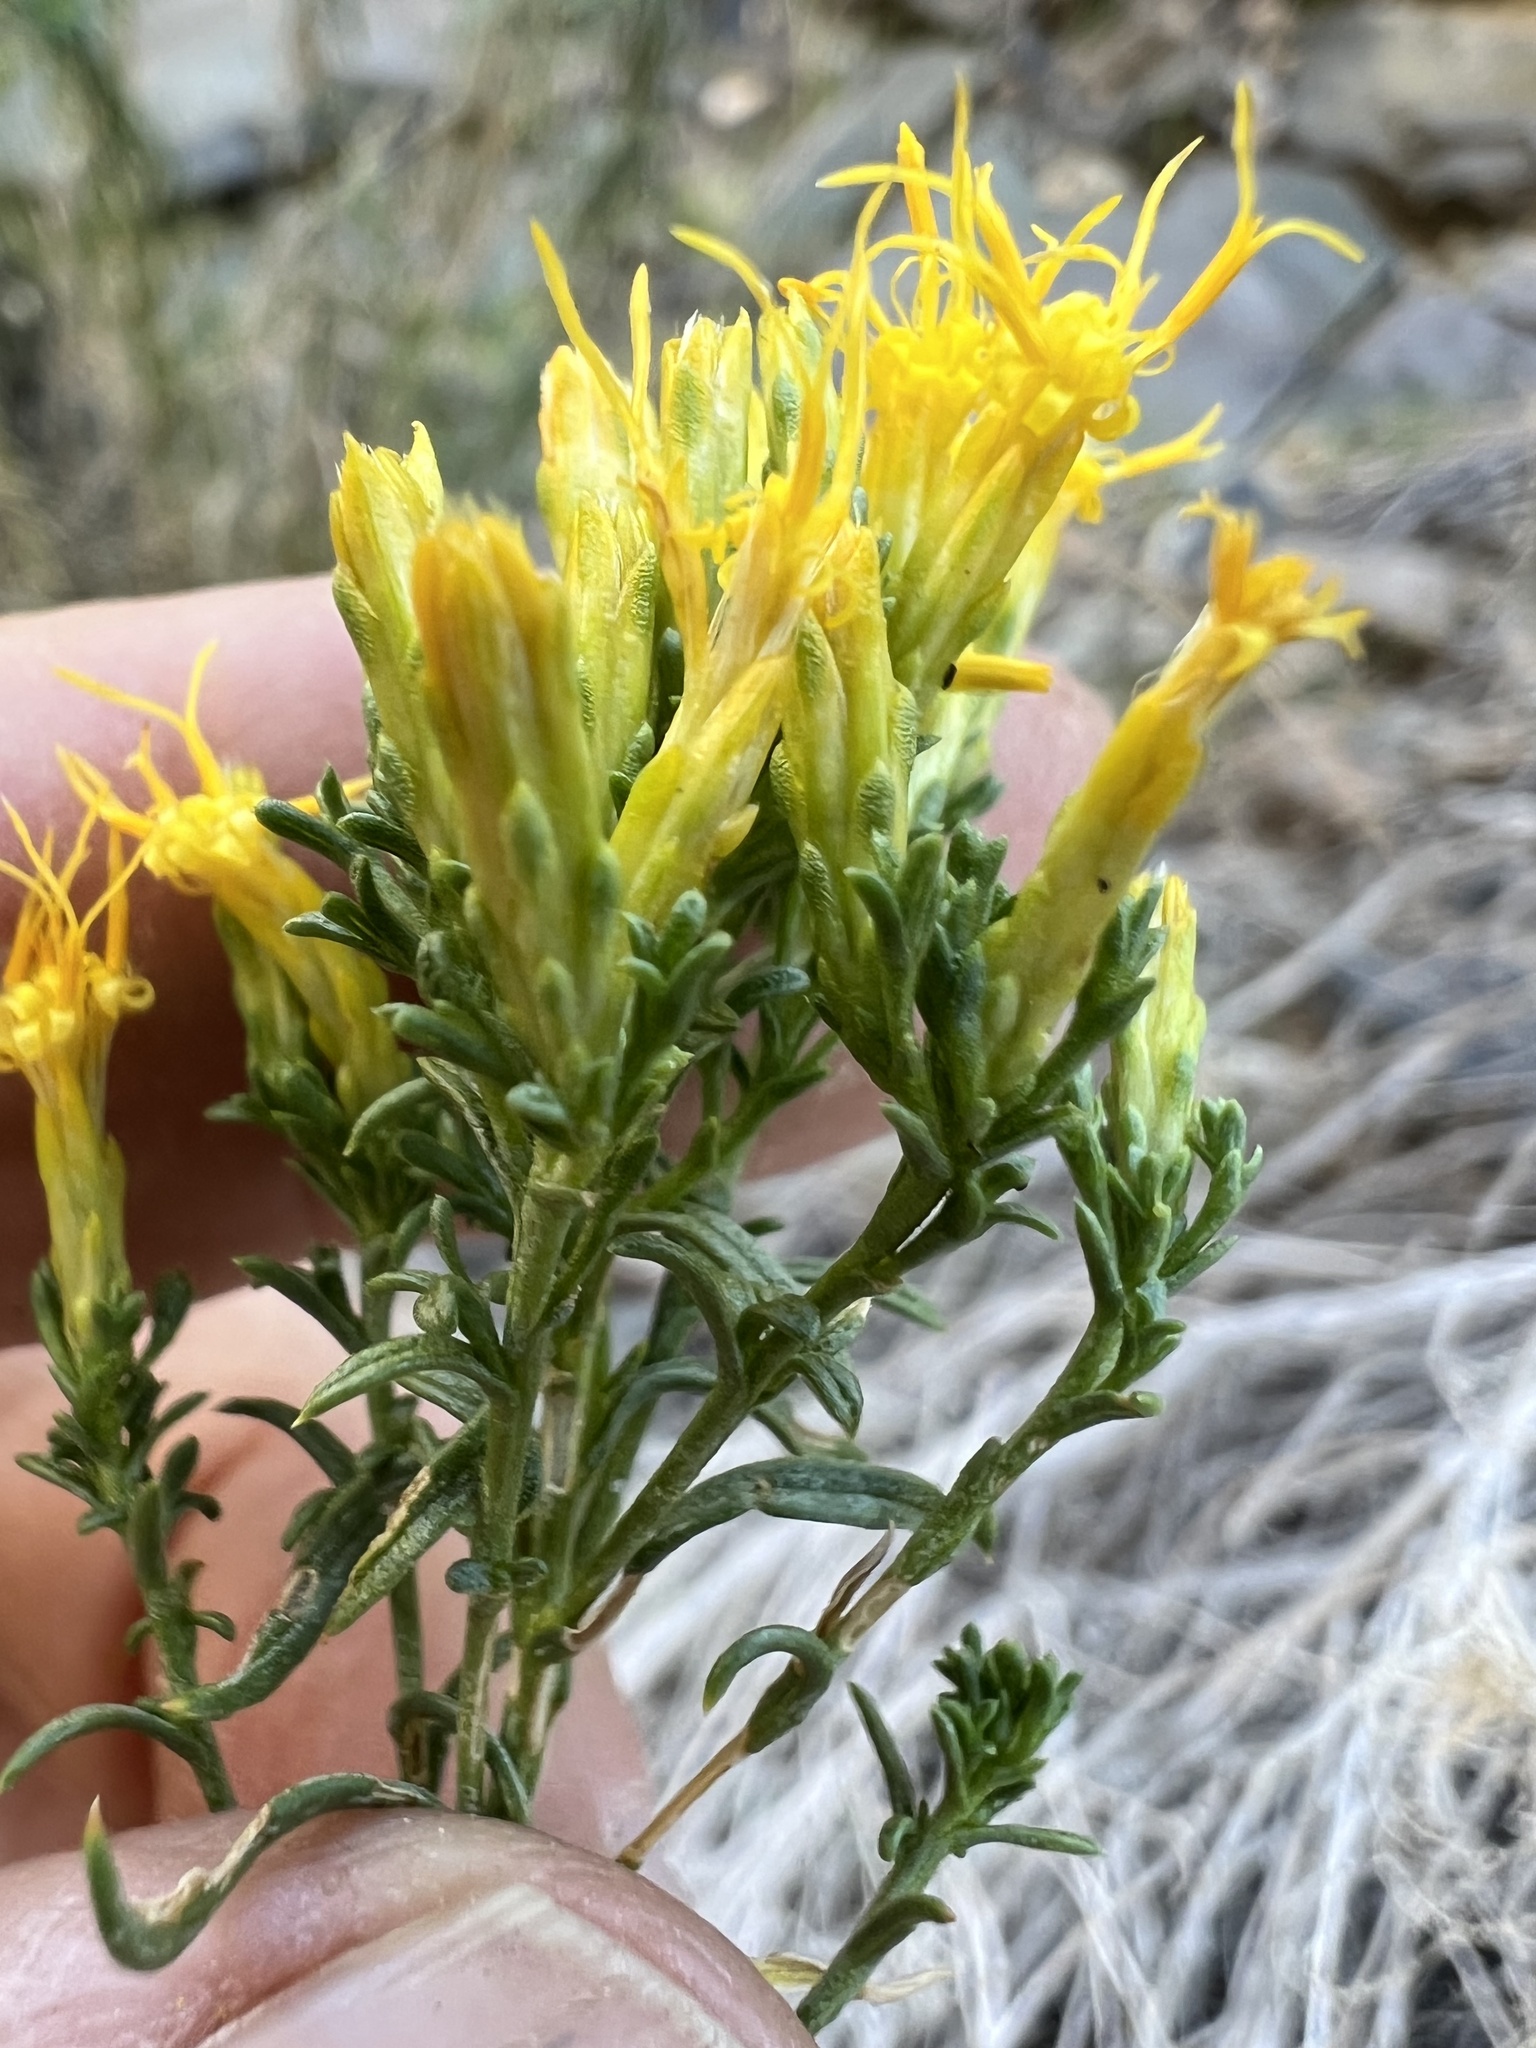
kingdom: Plantae
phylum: Tracheophyta
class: Magnoliopsida
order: Asterales
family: Asteraceae
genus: Chrysothamnus
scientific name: Chrysothamnus viscidiflorus
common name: Yellow rabbitbrush
